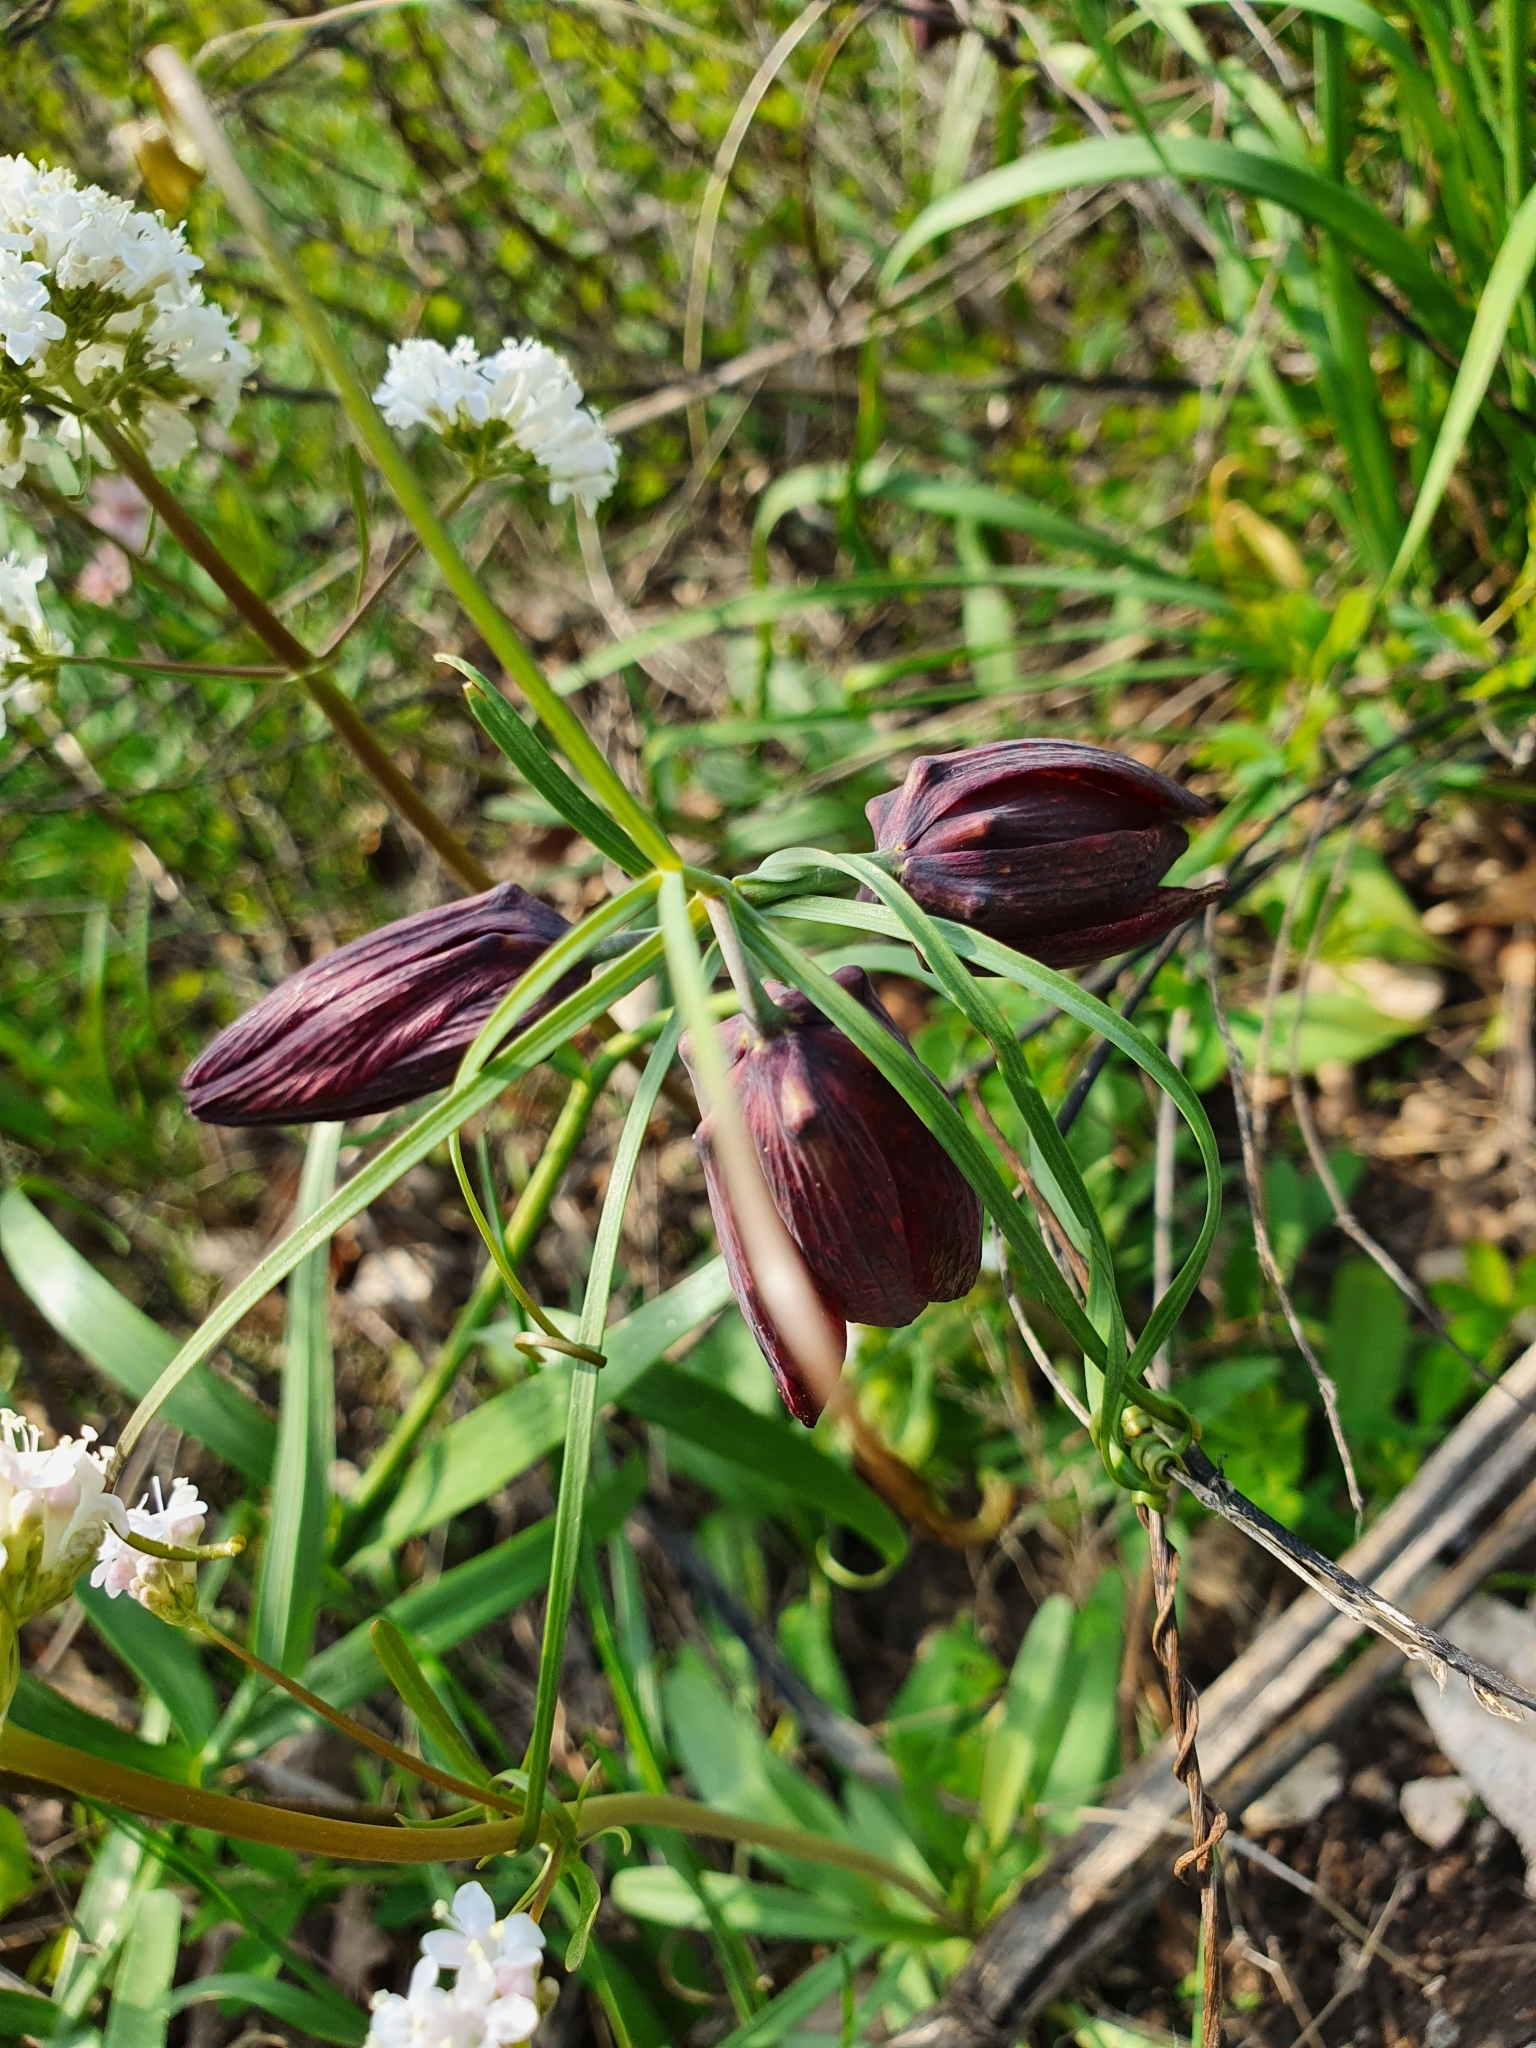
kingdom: Plantae
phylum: Tracheophyta
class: Liliopsida
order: Liliales
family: Liliaceae
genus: Fritillaria
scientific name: Fritillaria ruthenica
